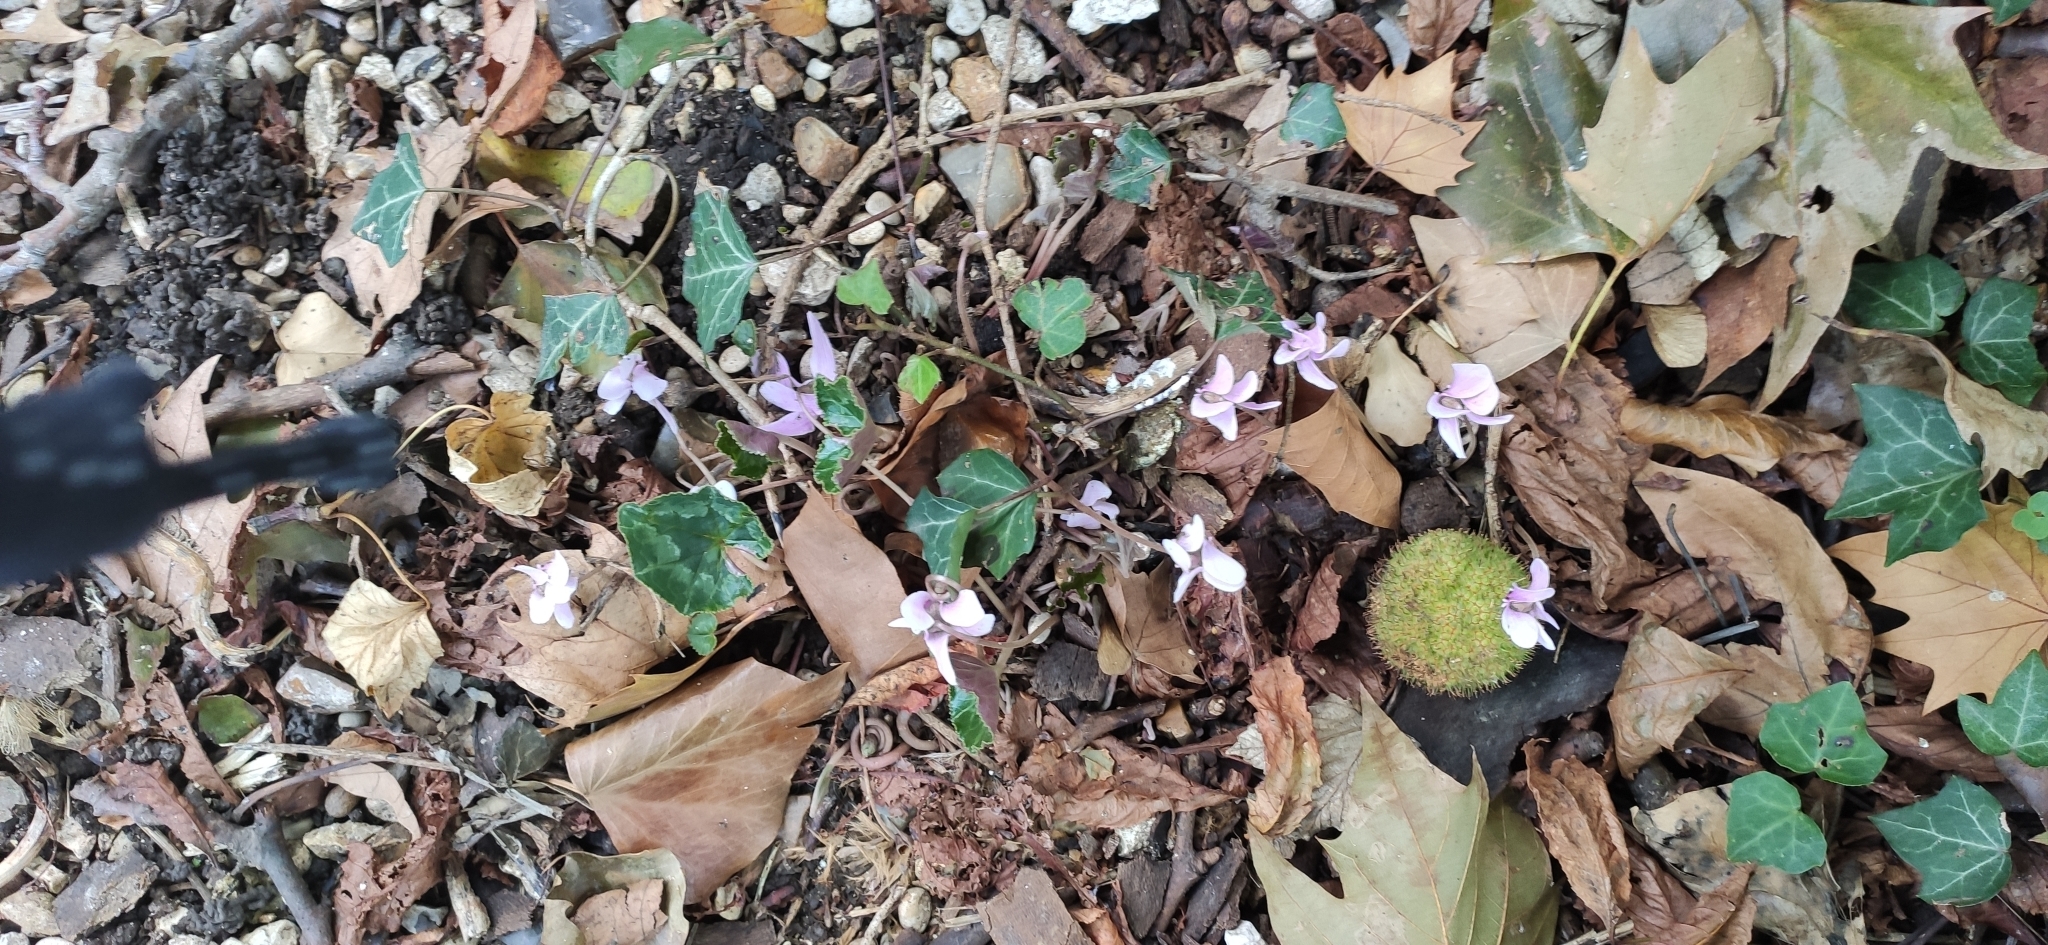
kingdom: Plantae
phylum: Tracheophyta
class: Magnoliopsida
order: Ericales
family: Primulaceae
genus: Cyclamen
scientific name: Cyclamen hederifolium
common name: Sowbread
